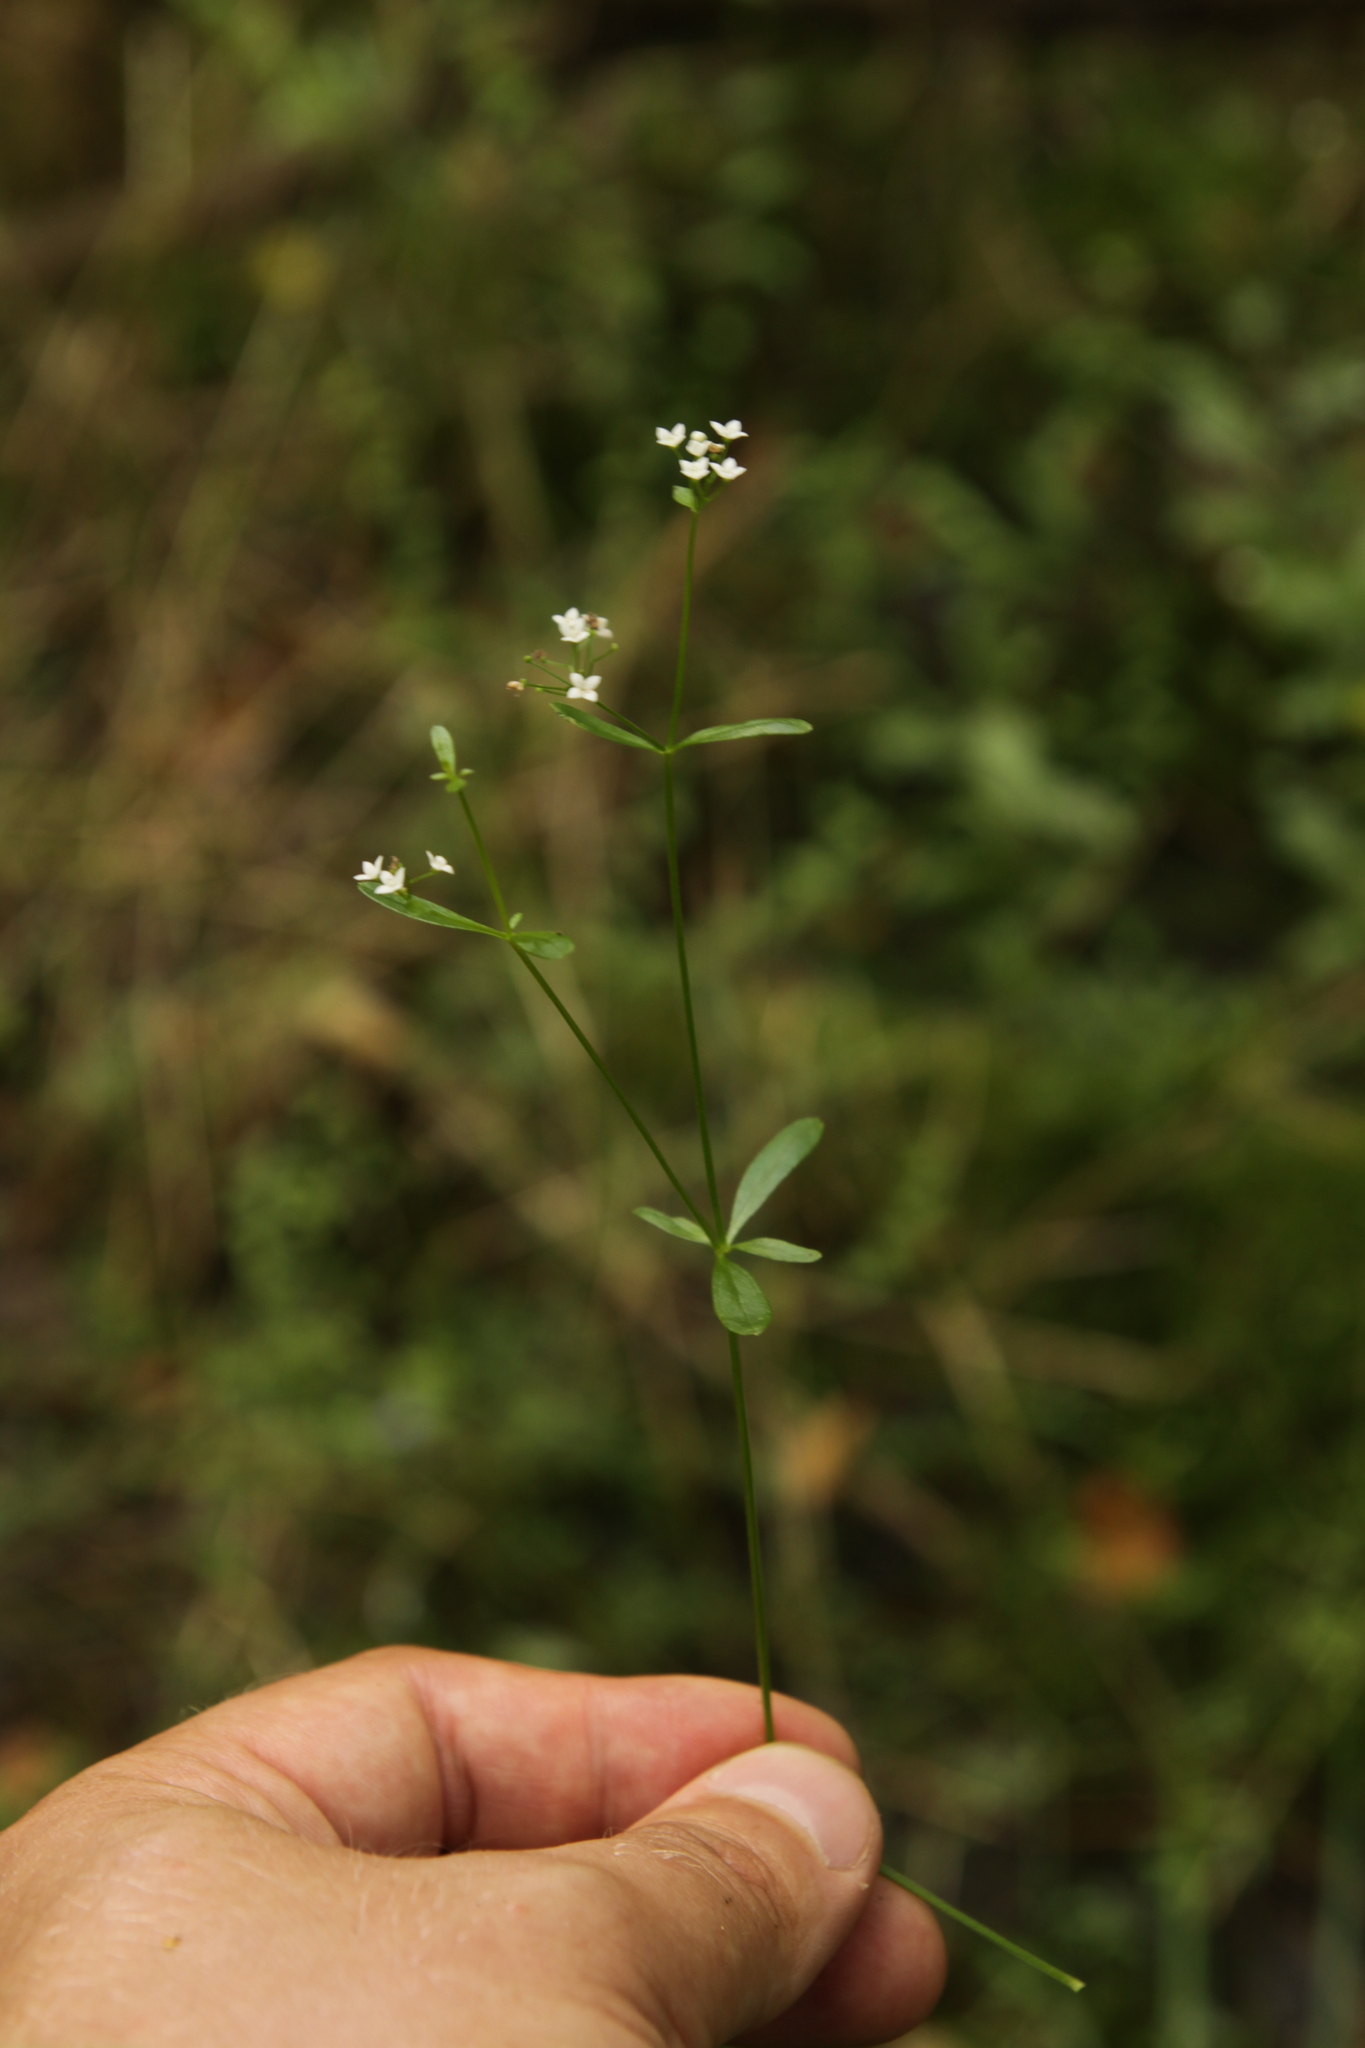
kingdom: Plantae
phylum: Tracheophyta
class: Magnoliopsida
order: Gentianales
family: Rubiaceae
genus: Galium
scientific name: Galium palustre
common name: Common marsh-bedstraw
